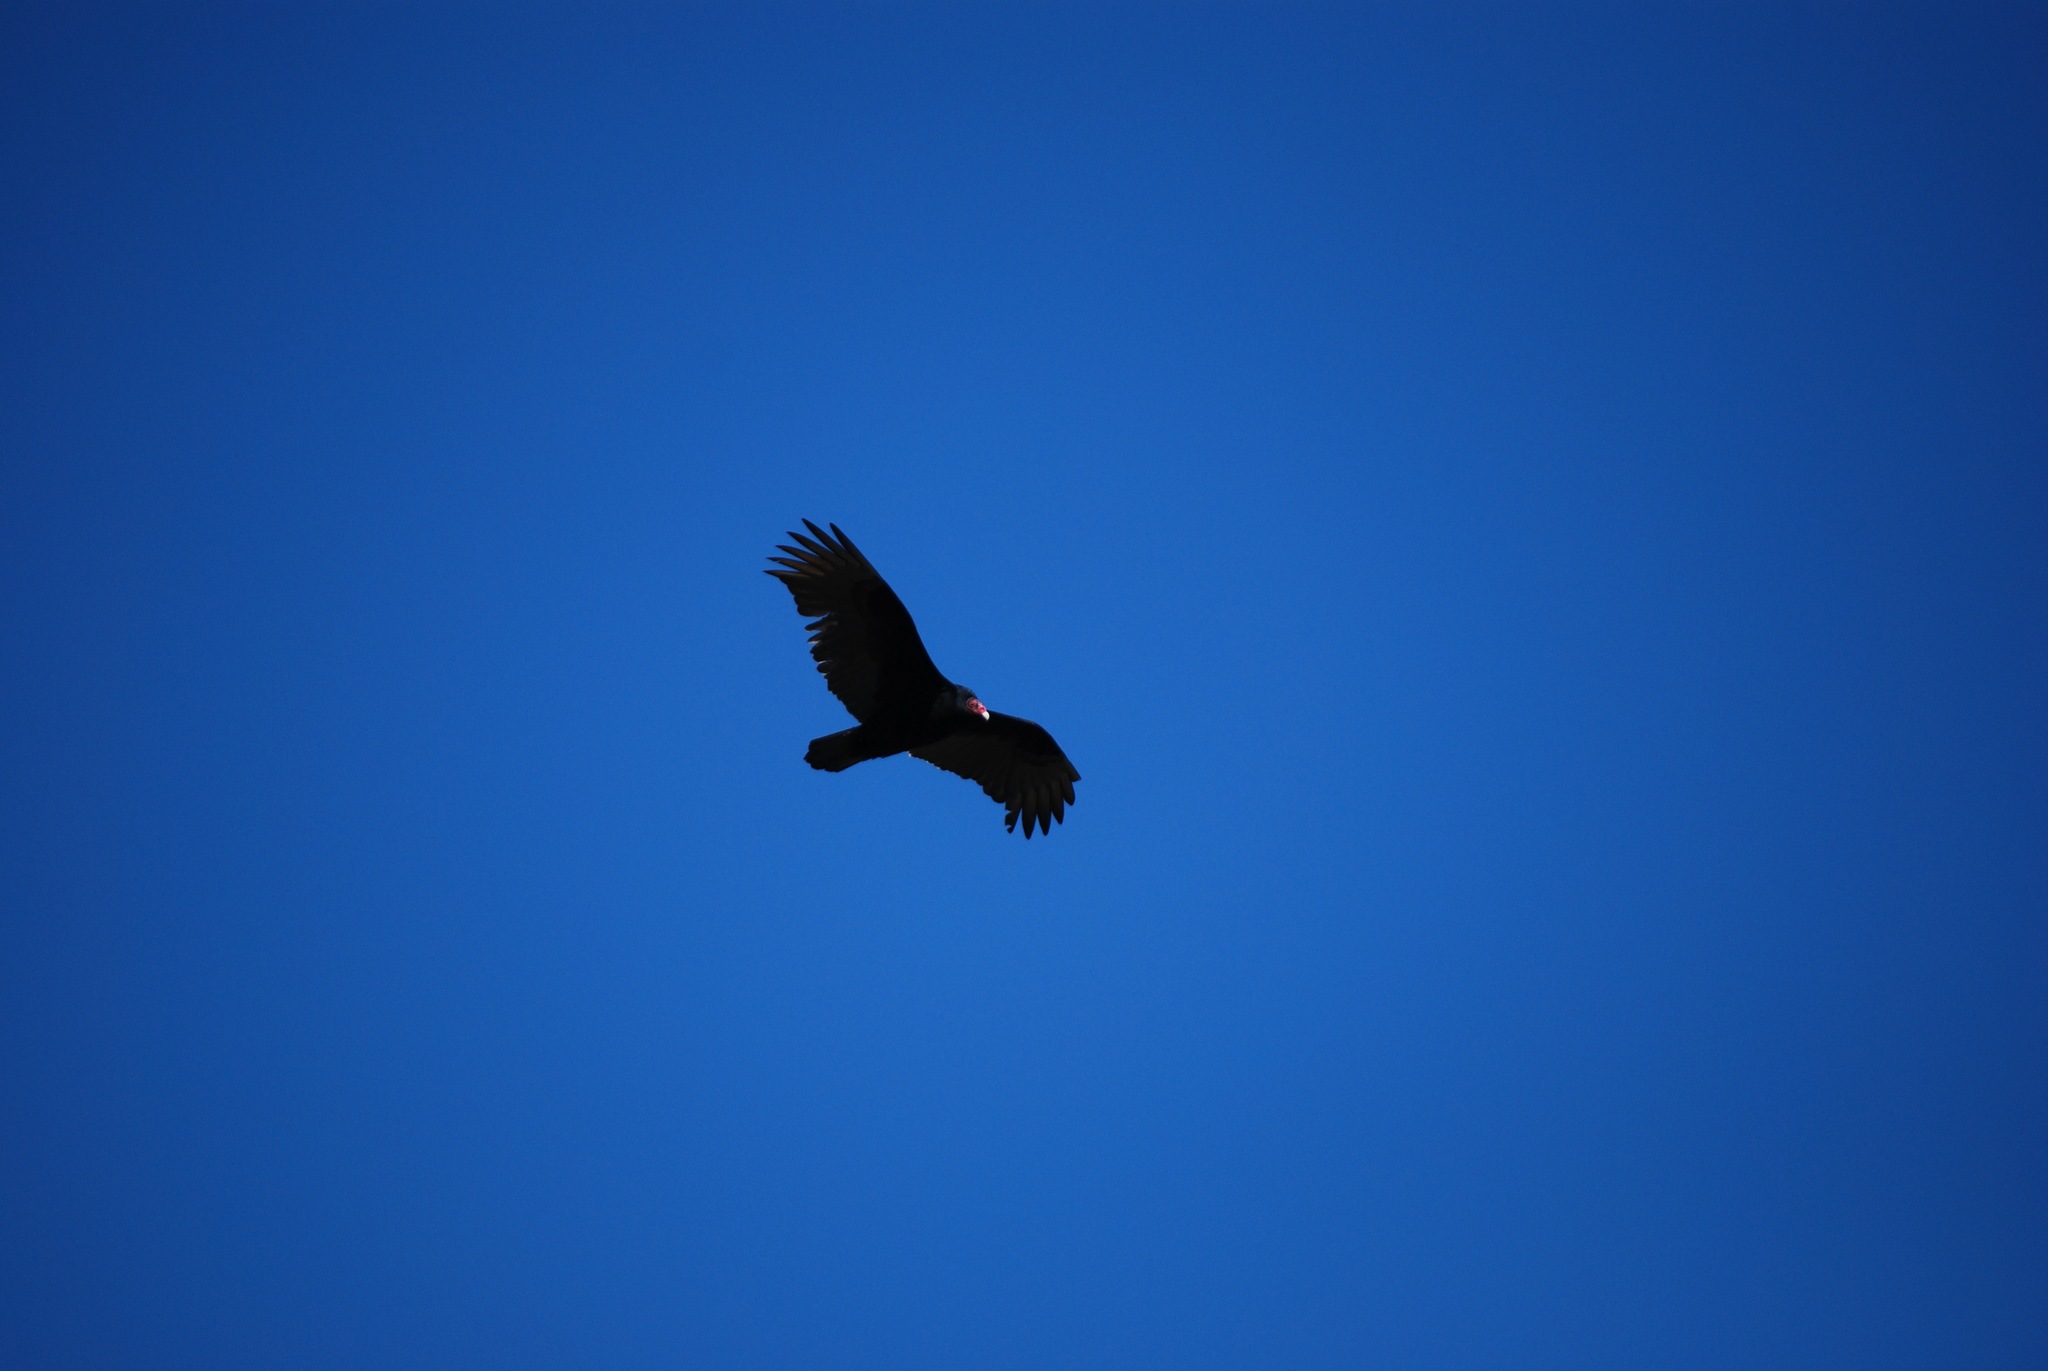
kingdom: Animalia
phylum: Chordata
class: Aves
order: Accipitriformes
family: Cathartidae
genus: Cathartes
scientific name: Cathartes aura
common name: Turkey vulture
